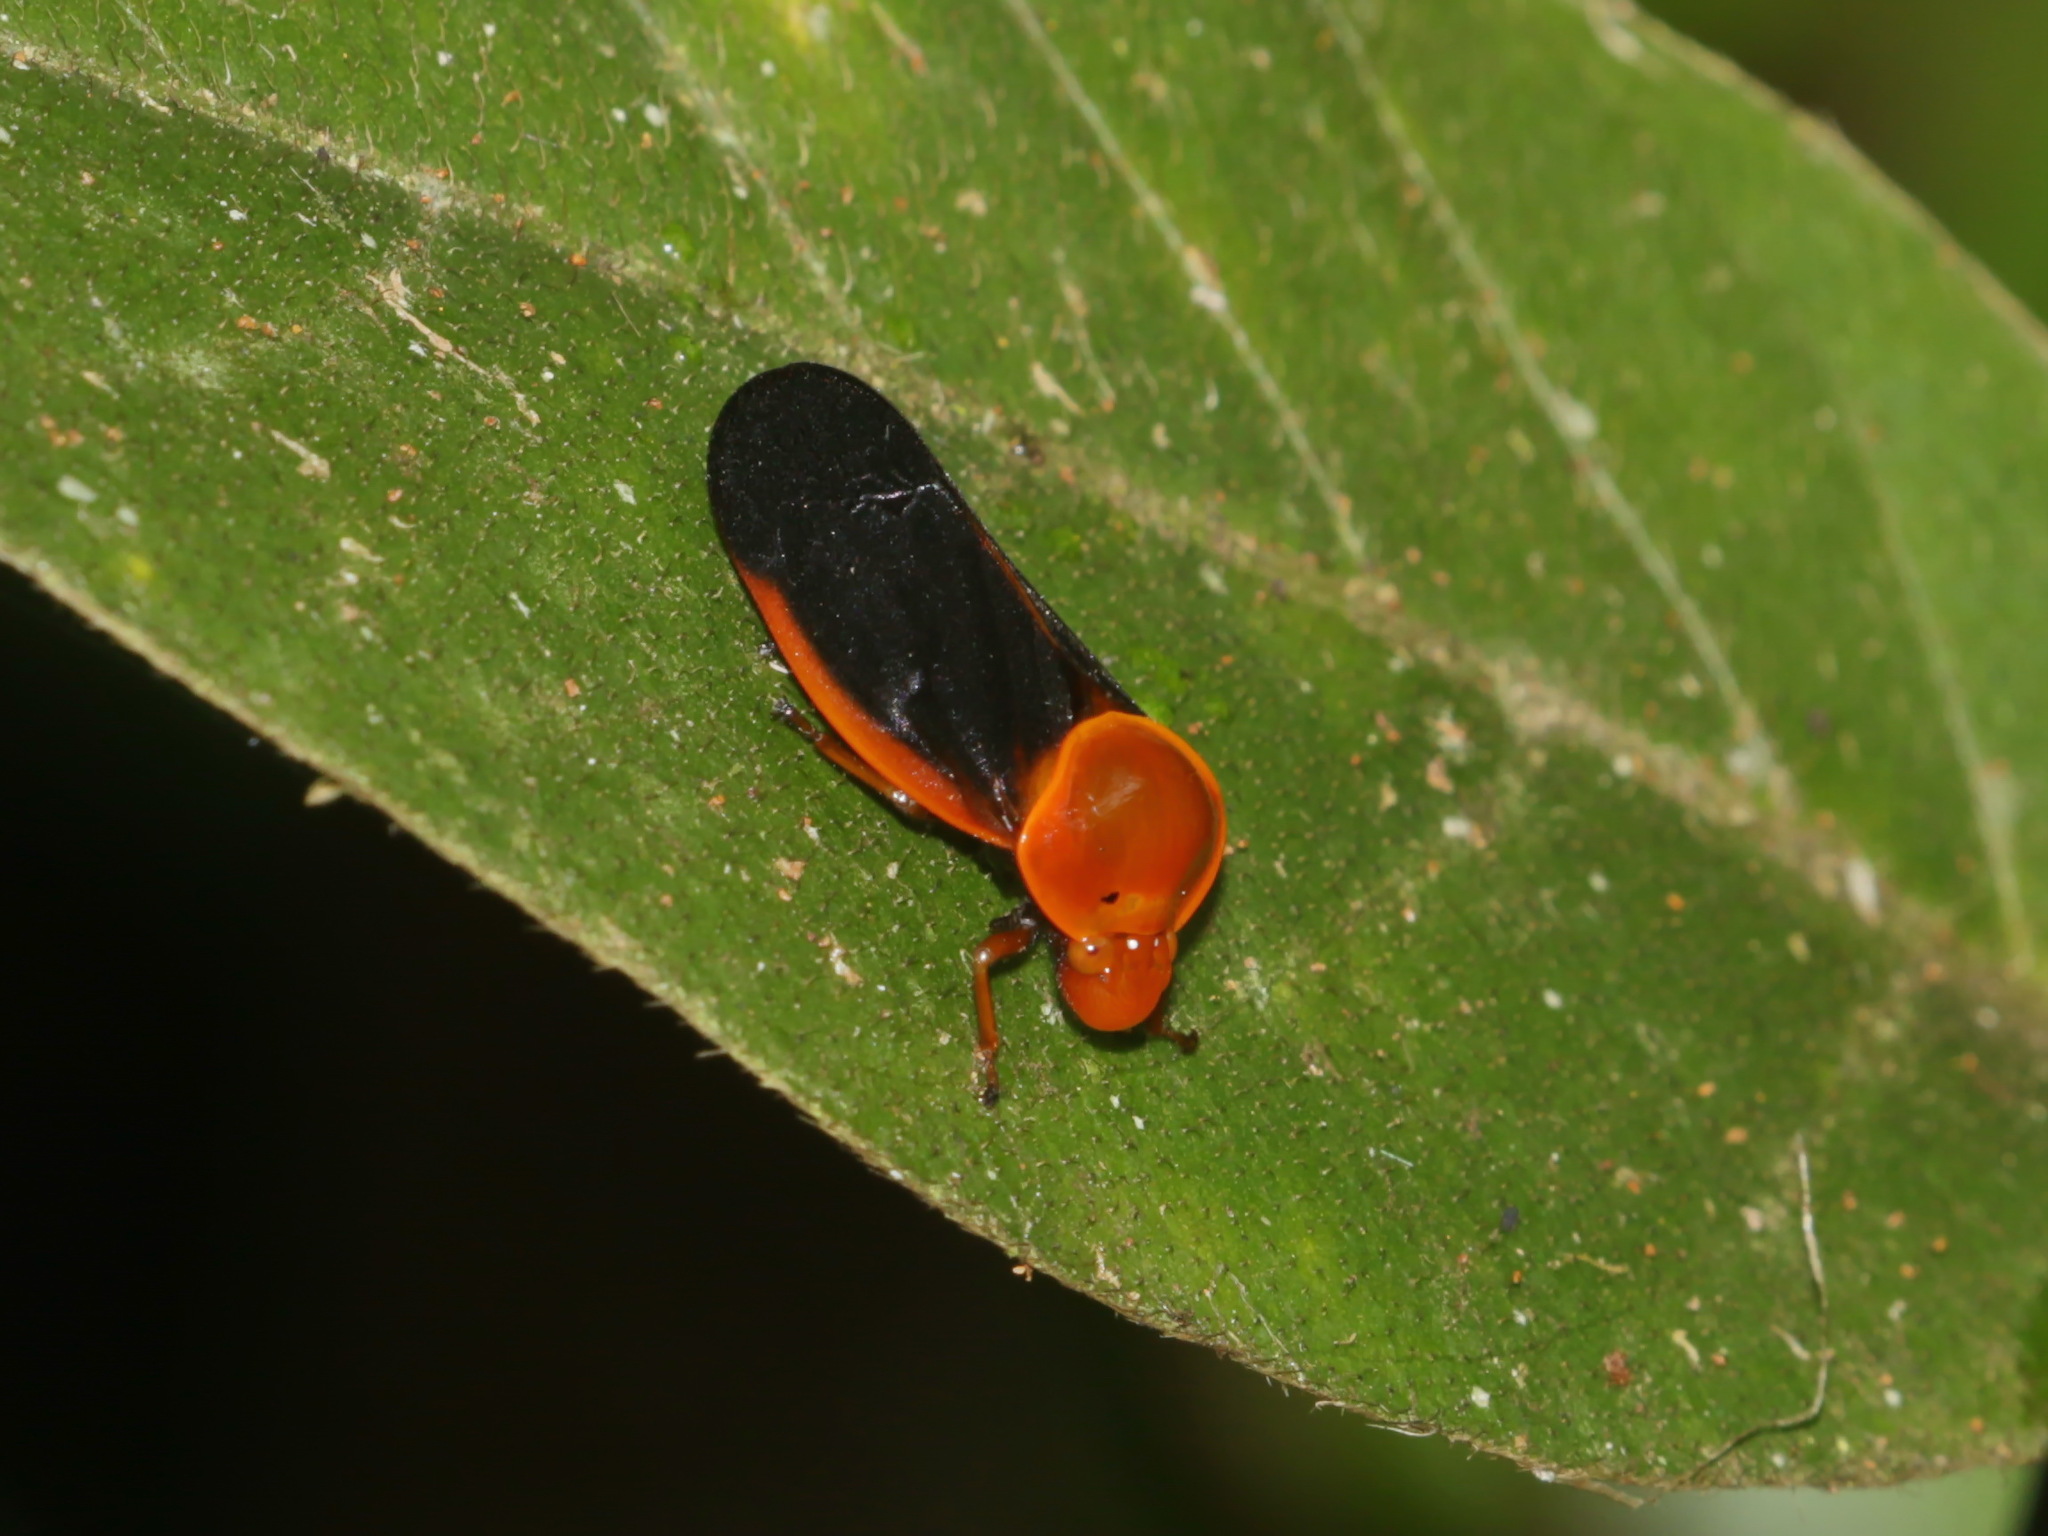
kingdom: Animalia
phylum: Arthropoda
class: Insecta
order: Hemiptera
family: Cercopidae
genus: Leptataspis
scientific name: Leptataspis fuscipennis
